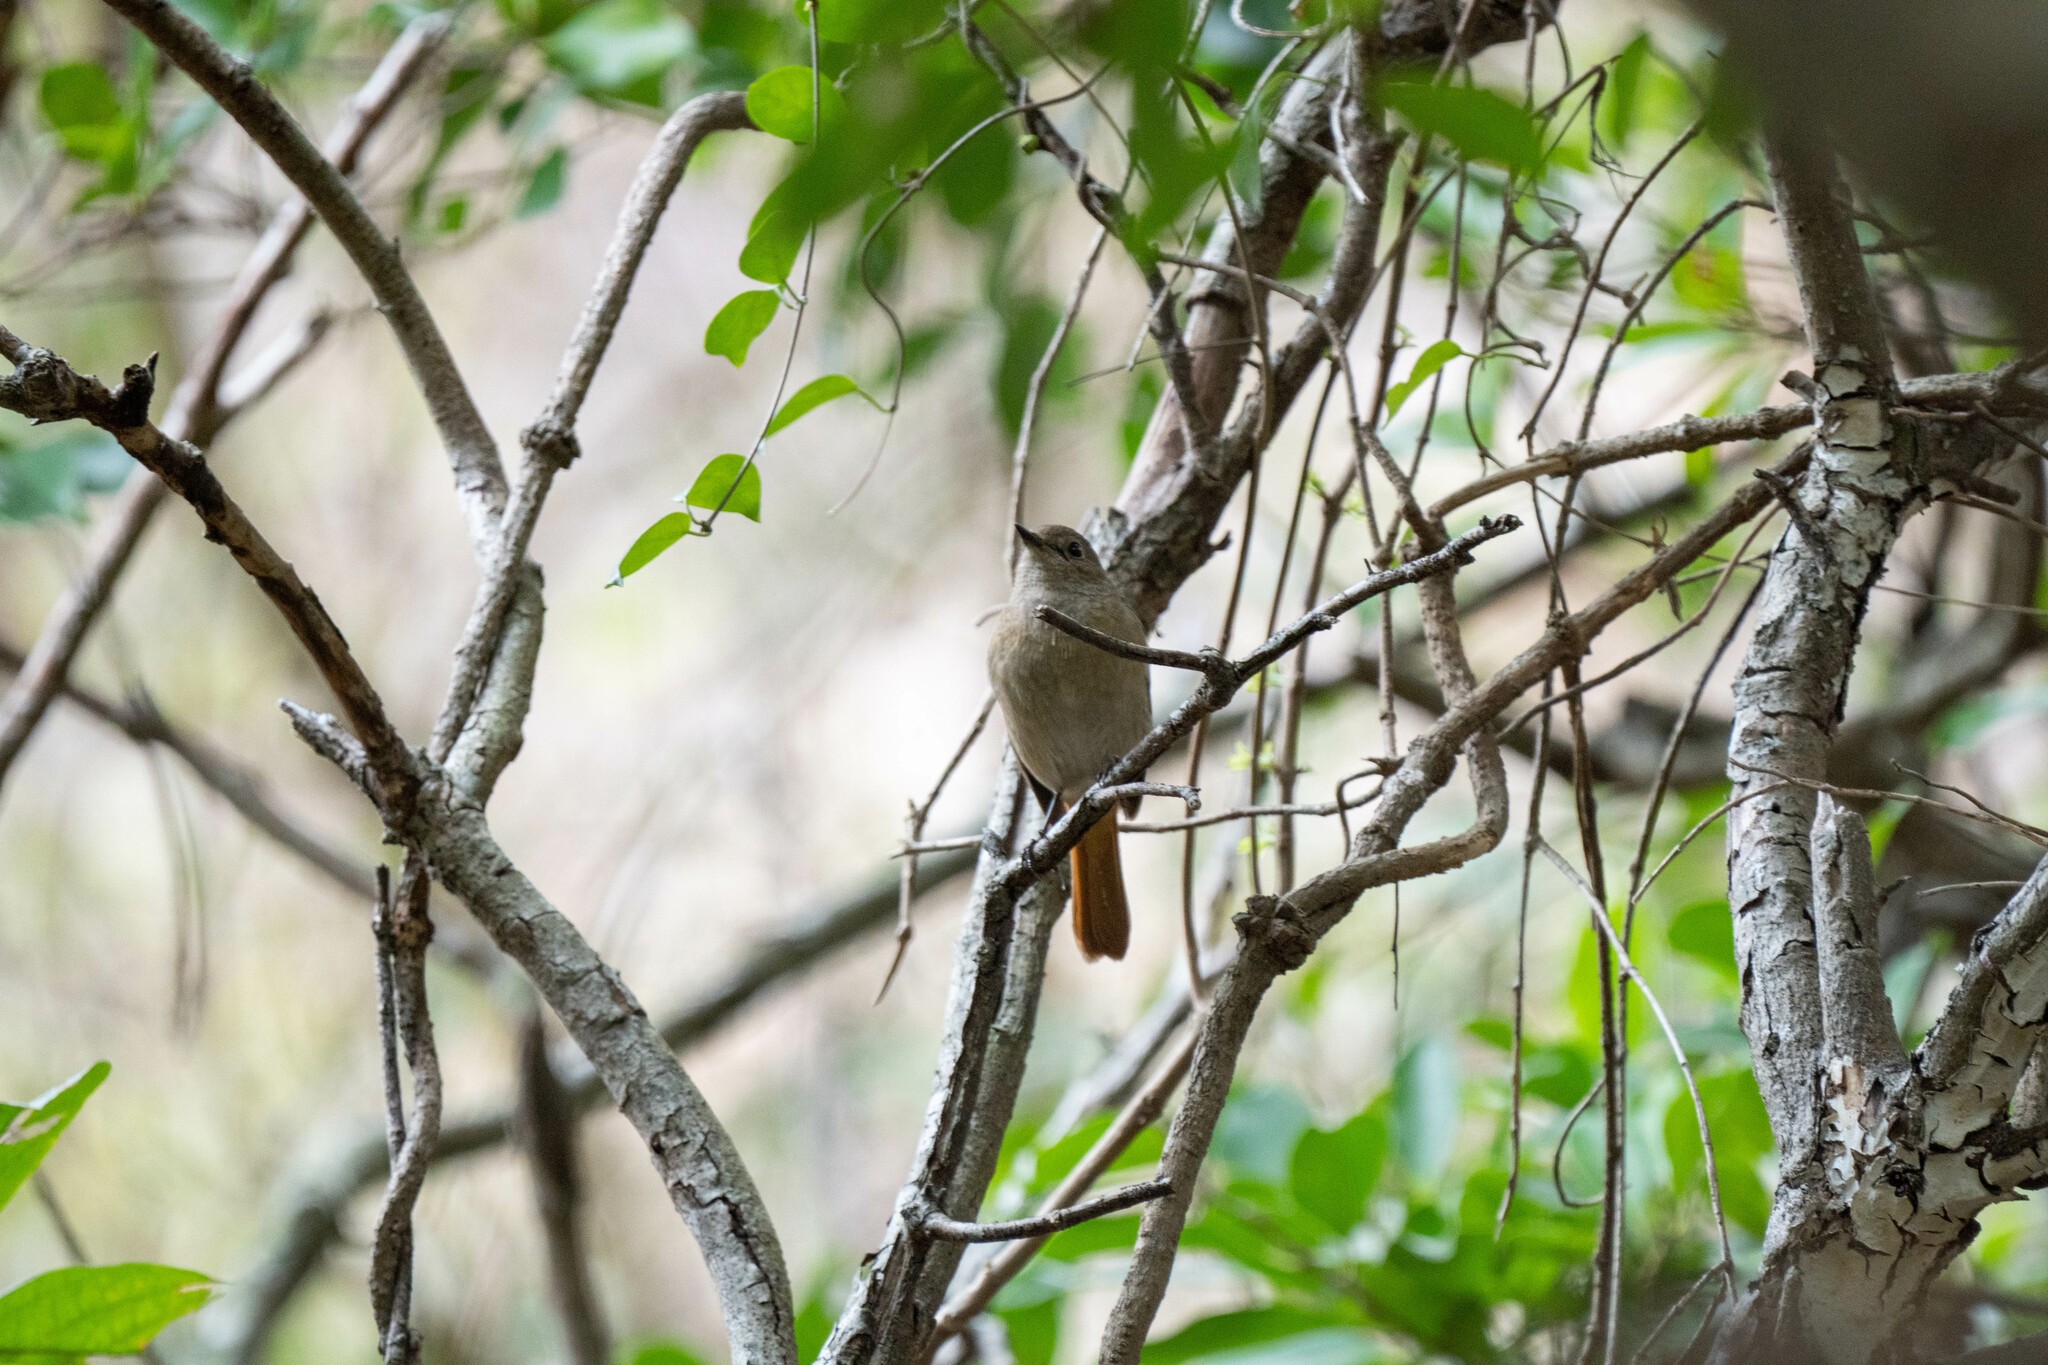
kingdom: Animalia
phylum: Chordata
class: Aves
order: Passeriformes
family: Muscicapidae
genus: Phoenicurus
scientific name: Phoenicurus auroreus
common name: Daurian redstart
